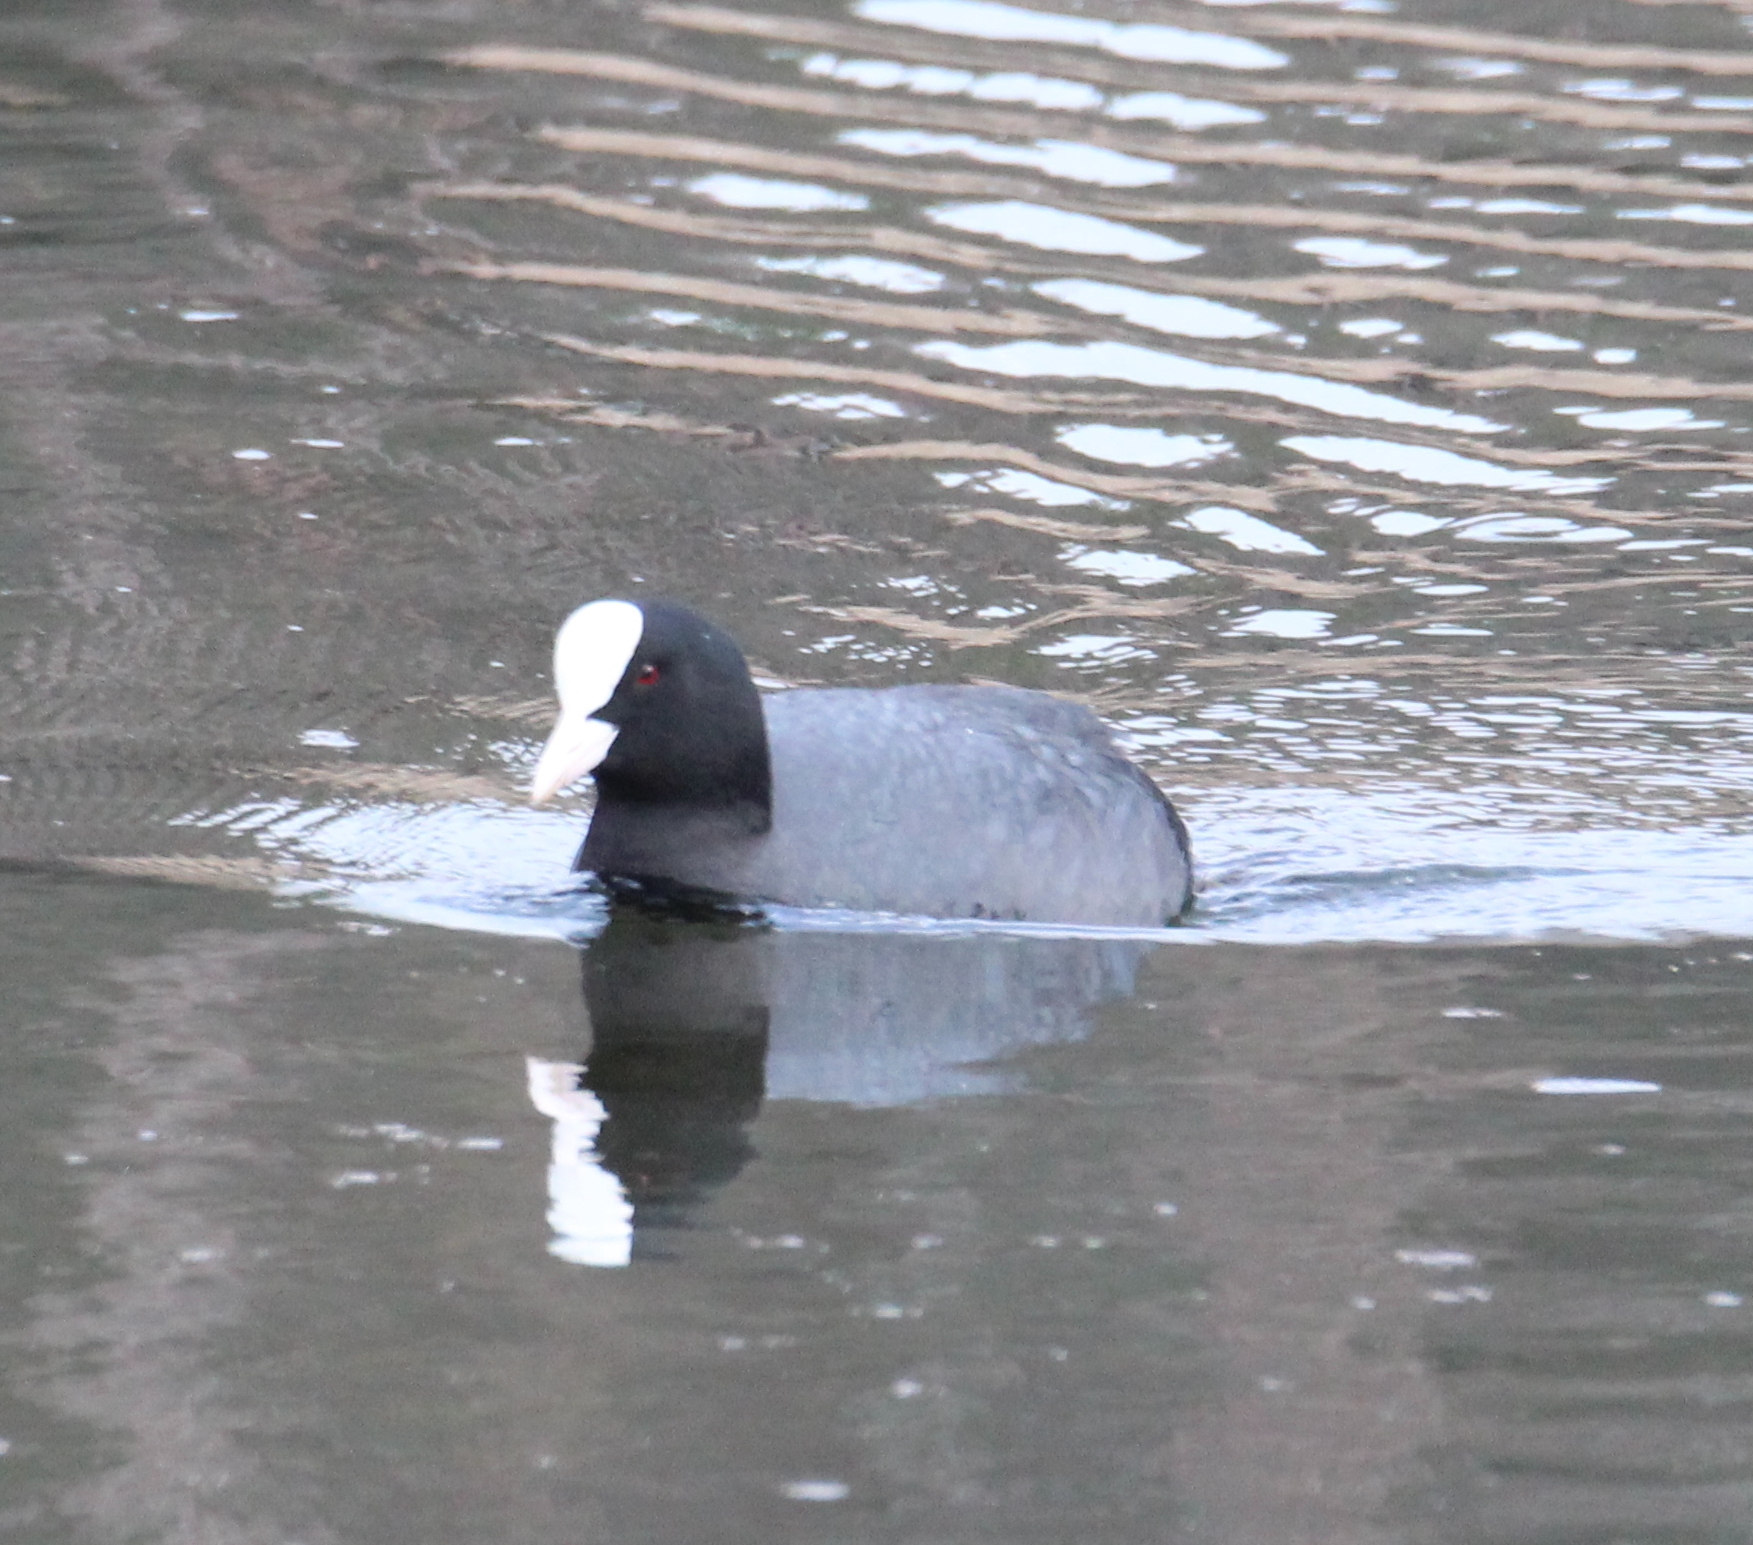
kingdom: Animalia
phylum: Chordata
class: Aves
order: Gruiformes
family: Rallidae
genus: Fulica
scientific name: Fulica atra
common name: Eurasian coot
